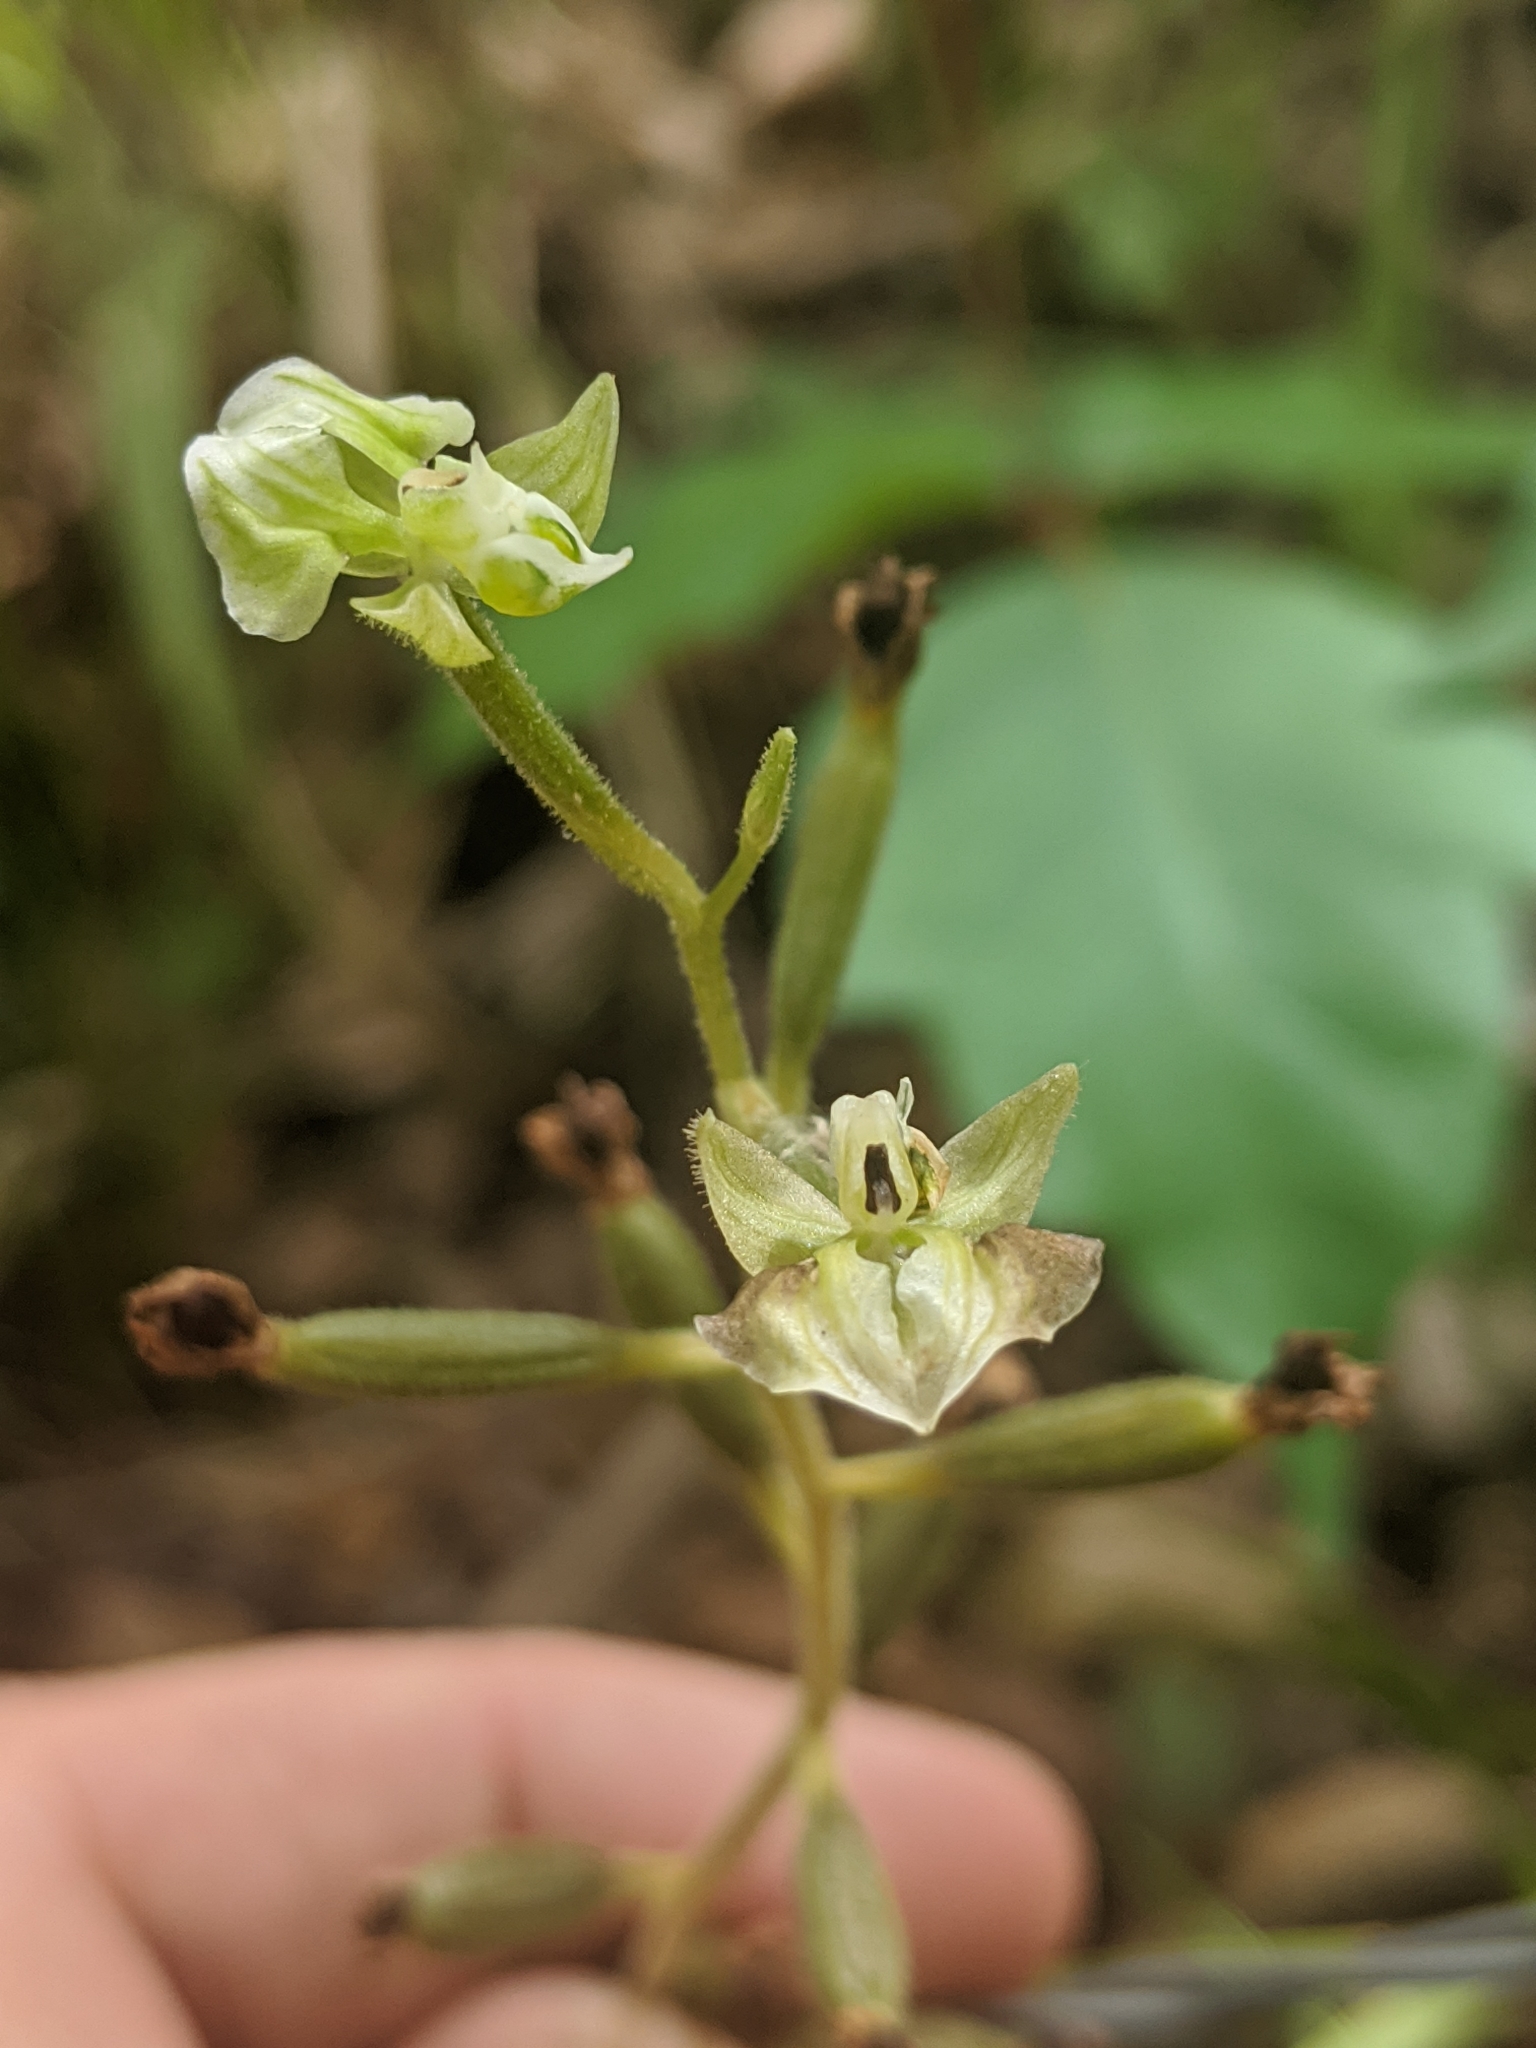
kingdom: Plantae
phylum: Tracheophyta
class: Liliopsida
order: Asparagales
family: Orchidaceae
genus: Ponthieva
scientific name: Ponthieva racemosa
